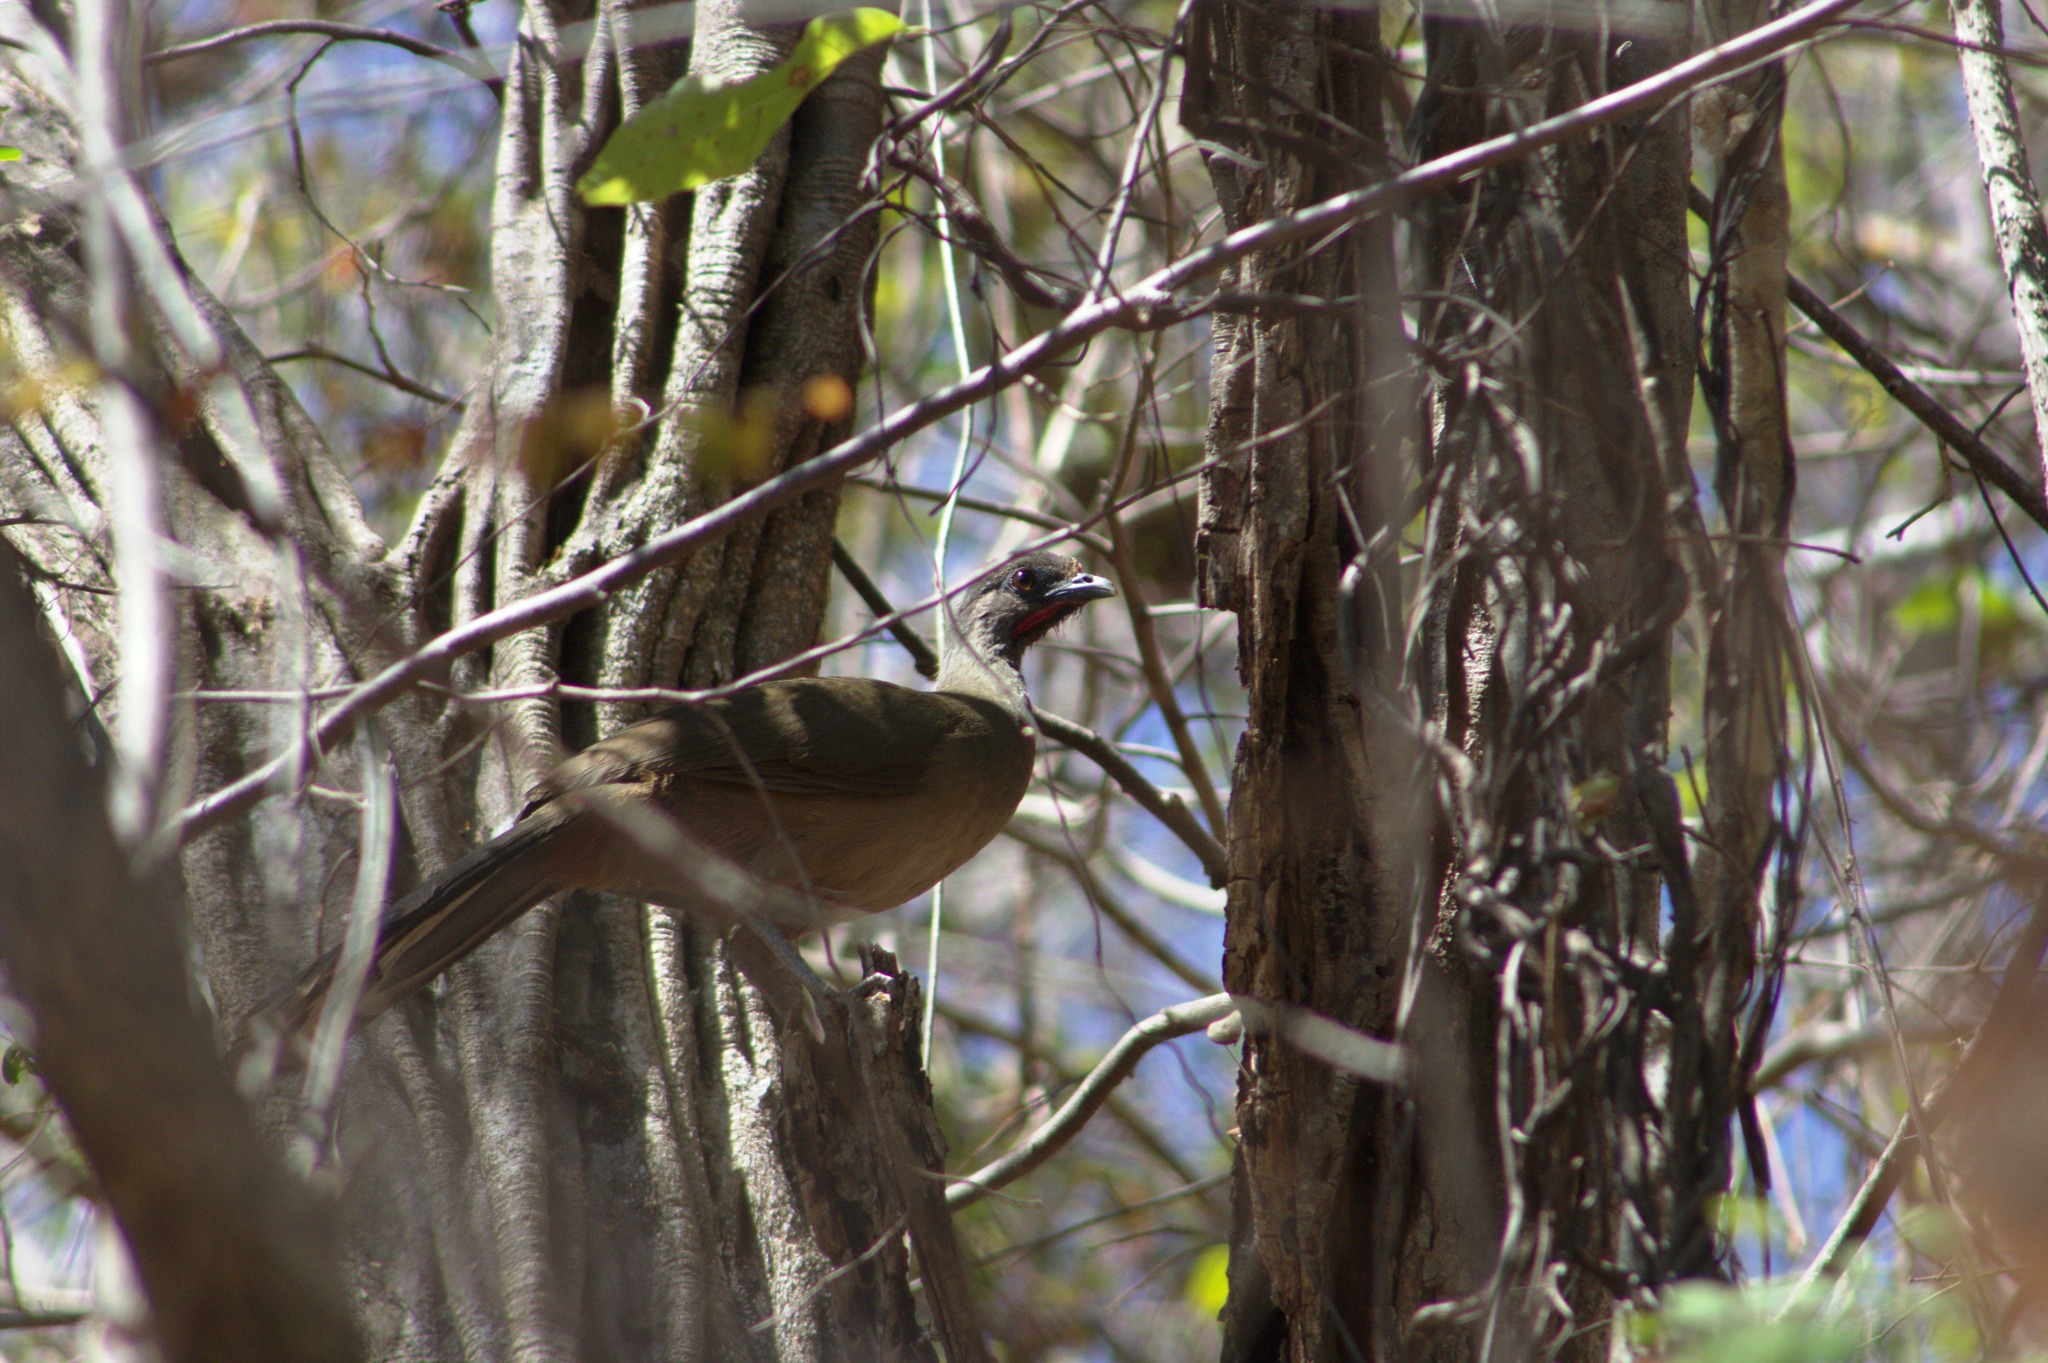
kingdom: Animalia
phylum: Chordata
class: Aves
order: Galliformes
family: Cracidae
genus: Ortalis
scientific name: Ortalis vetula
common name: Plain chachalaca
